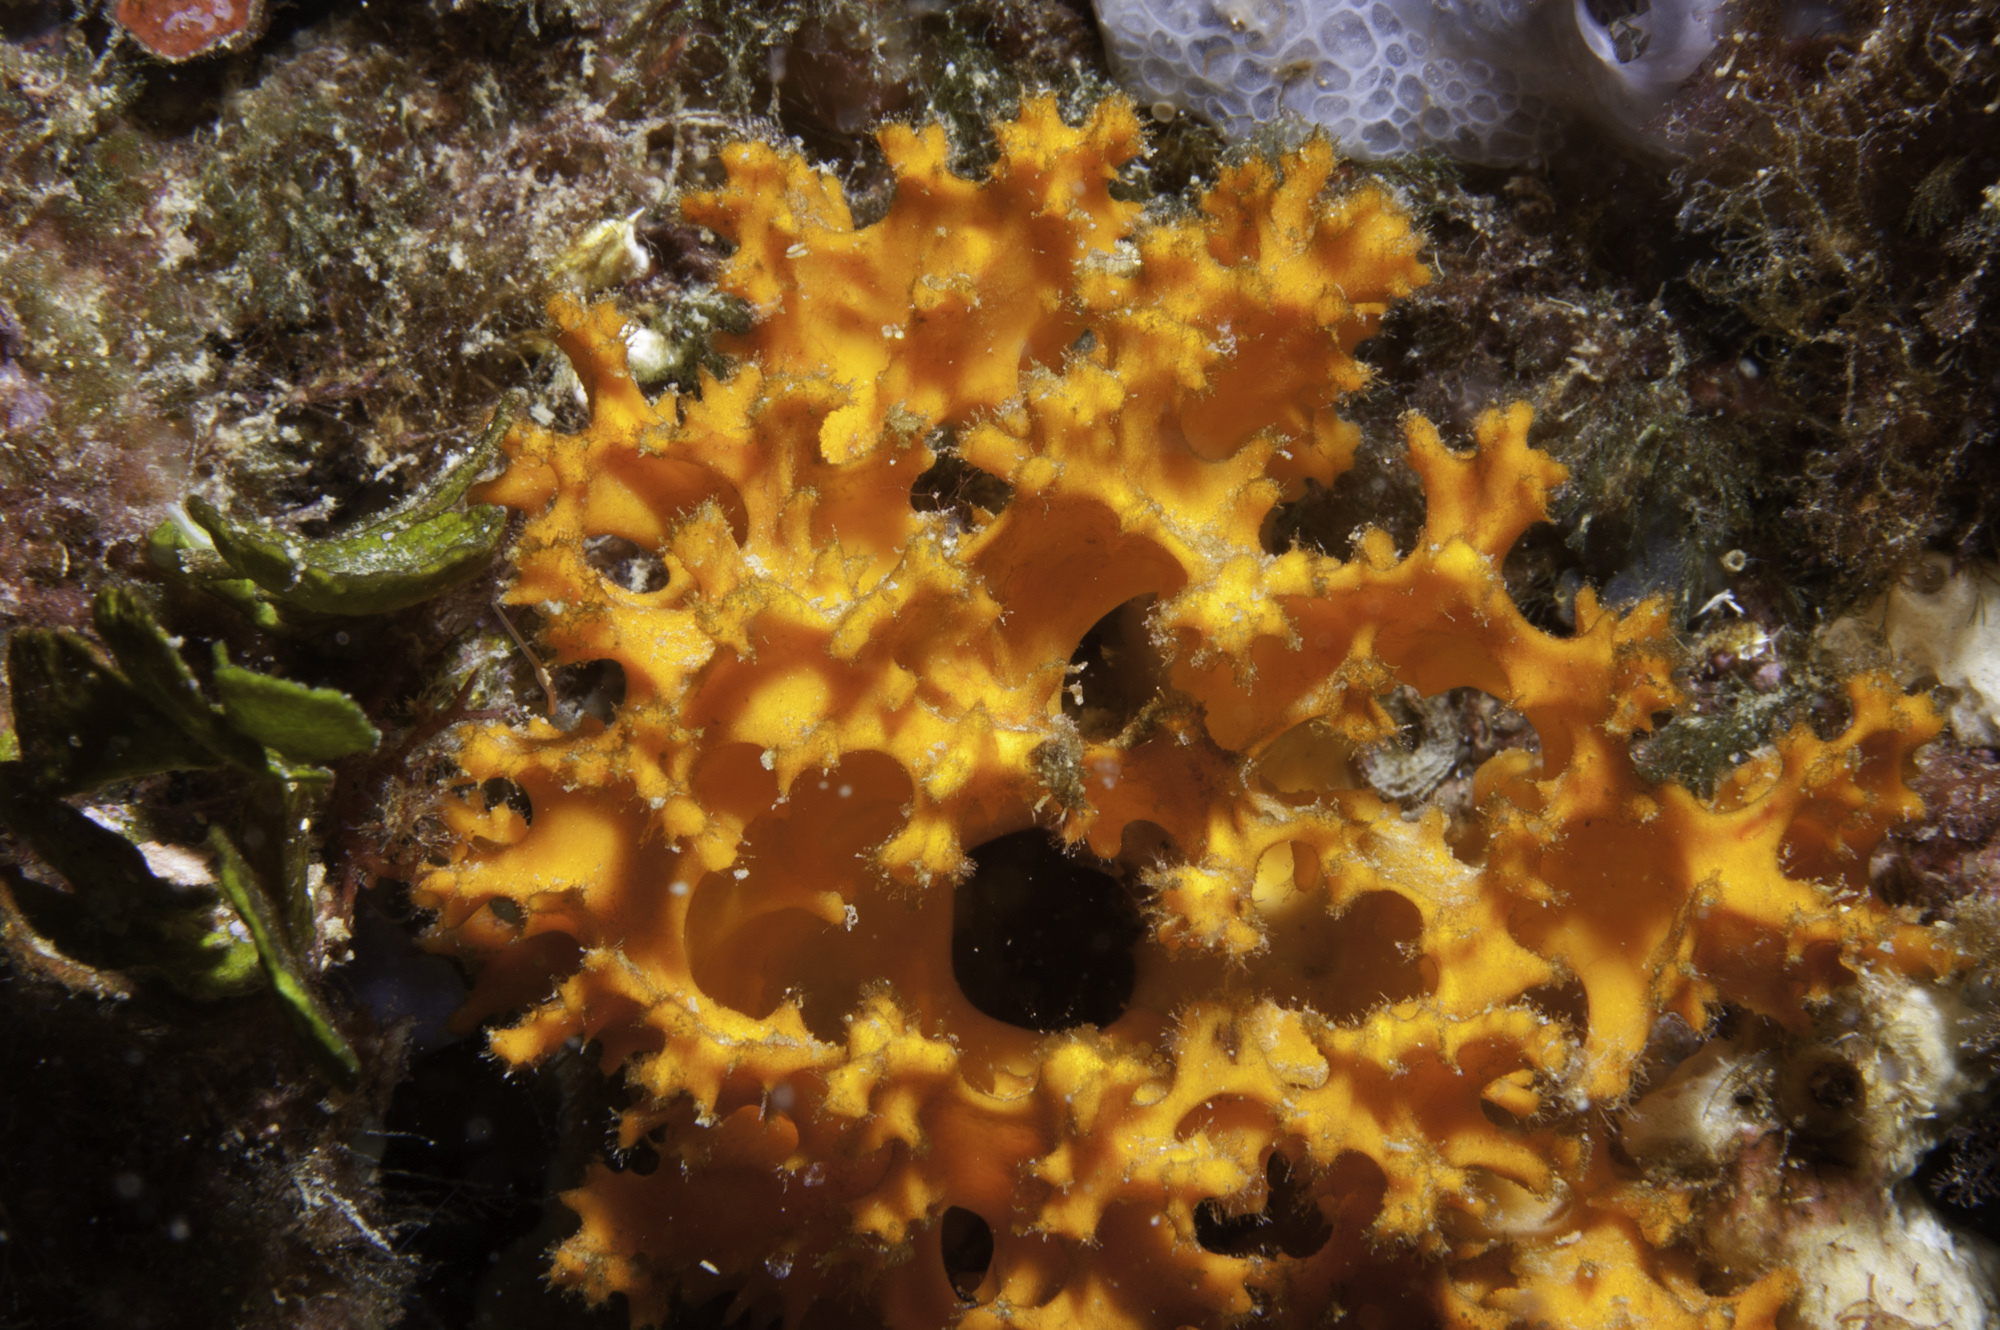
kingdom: Animalia
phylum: Porifera
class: Demospongiae
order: Bubarida
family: Dictyonellidae
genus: Acanthella
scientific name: Acanthella acuta
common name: Cactus sponge
